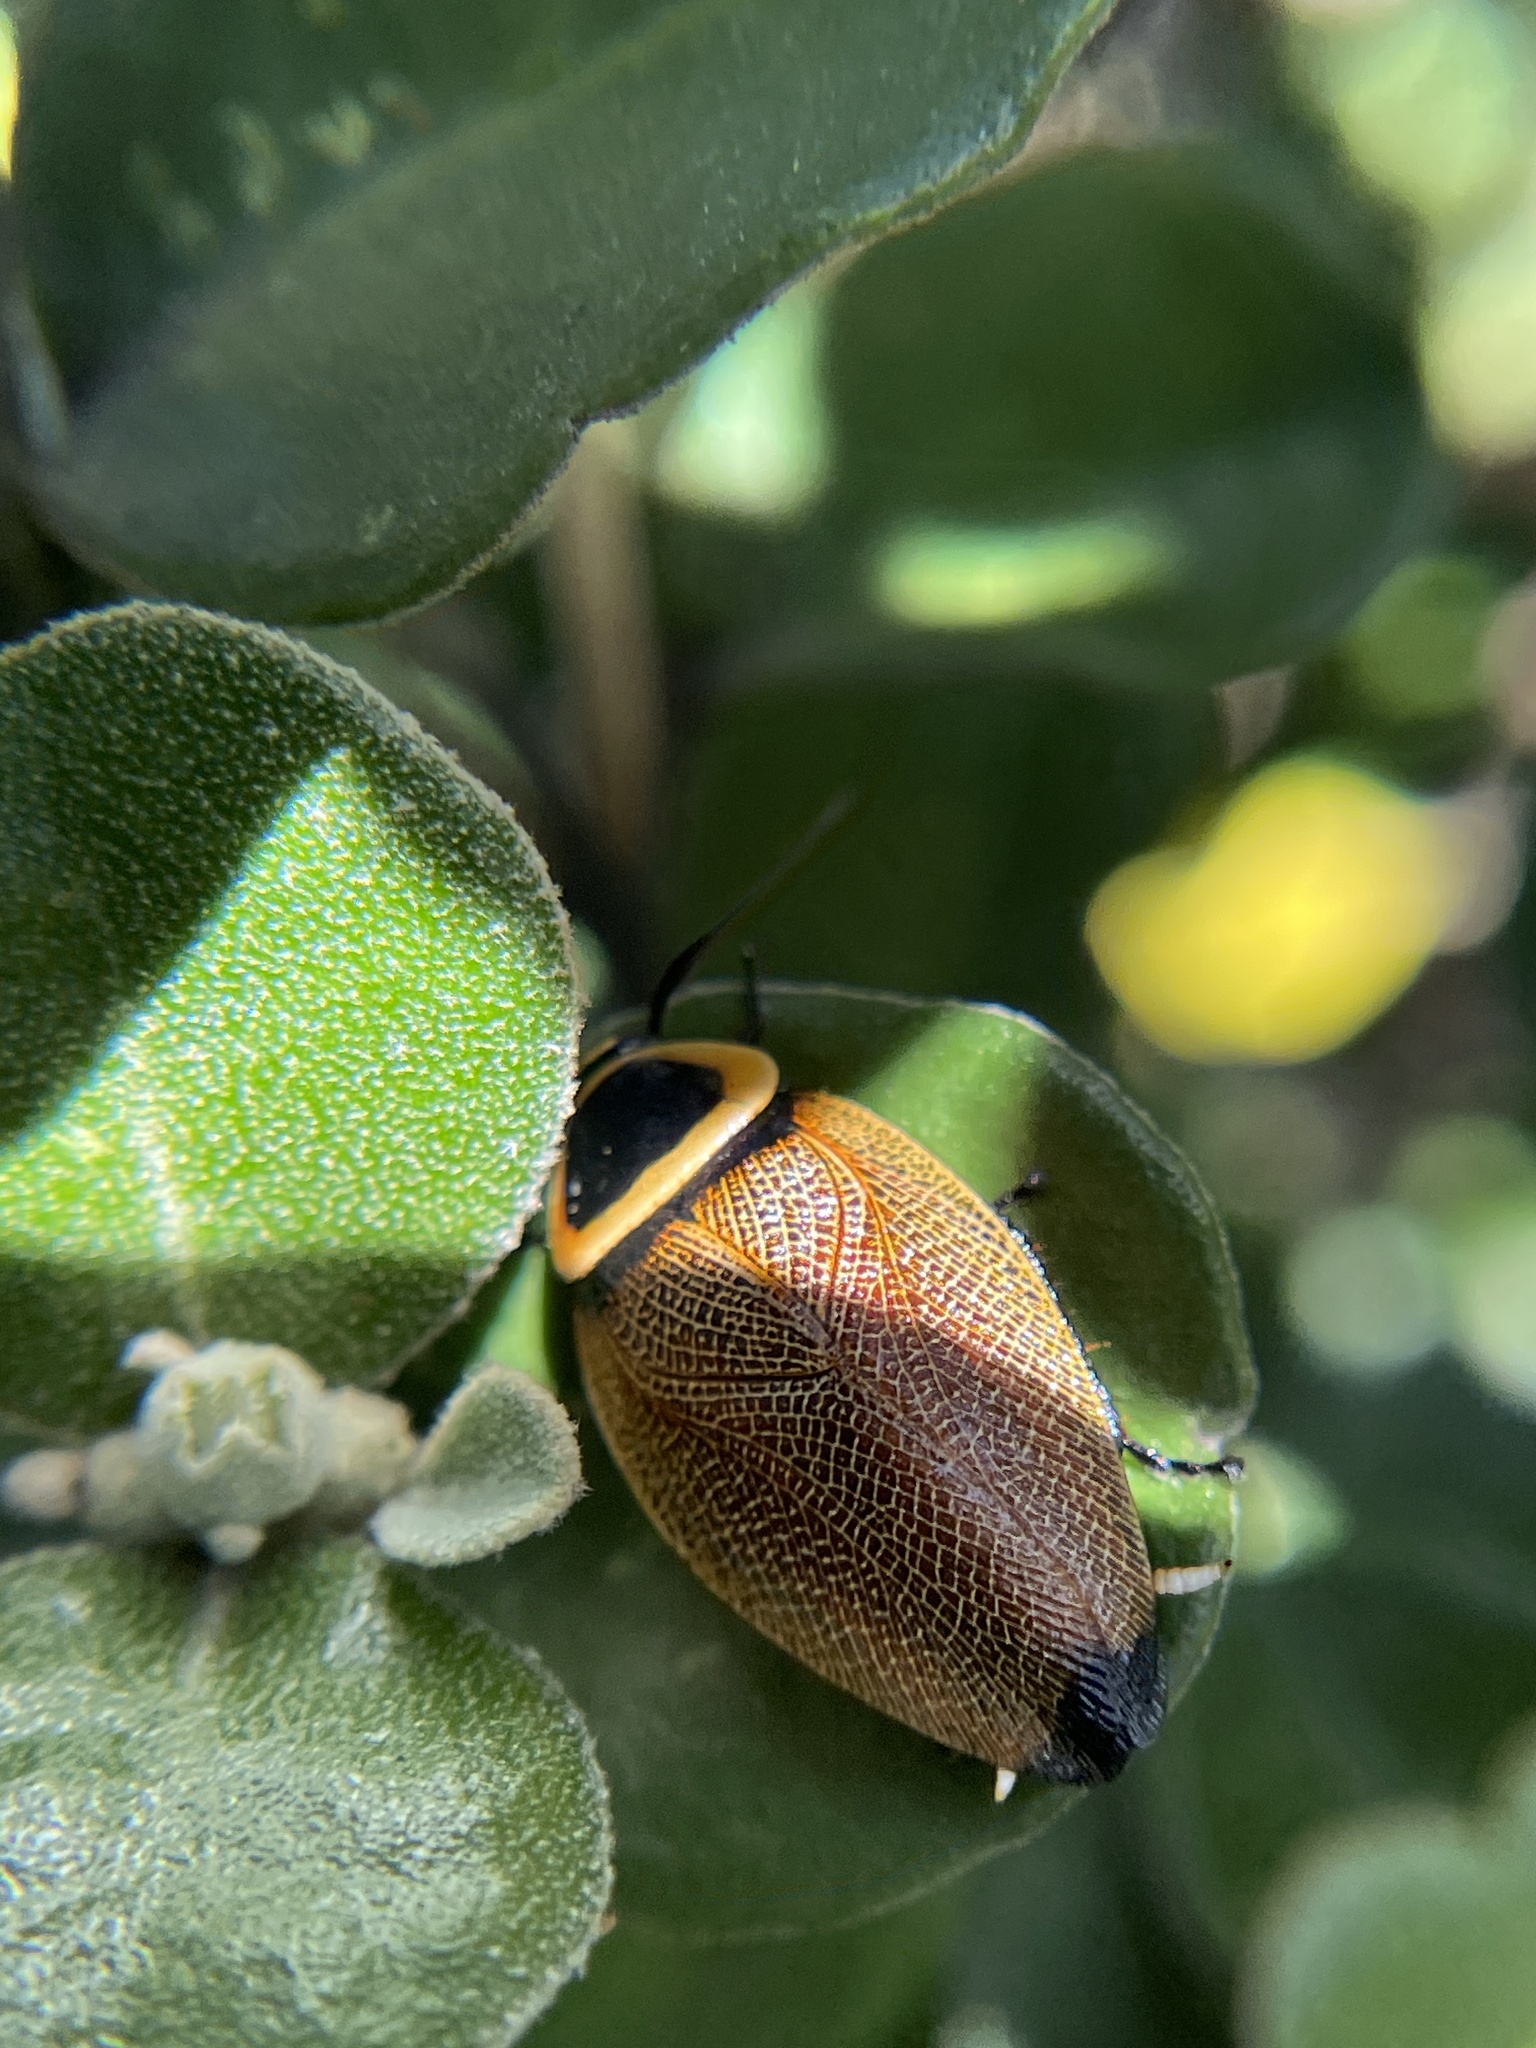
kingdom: Animalia
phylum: Arthropoda
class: Insecta
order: Blattodea
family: Ectobiidae
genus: Ellipsidion
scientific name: Ellipsidion australe
